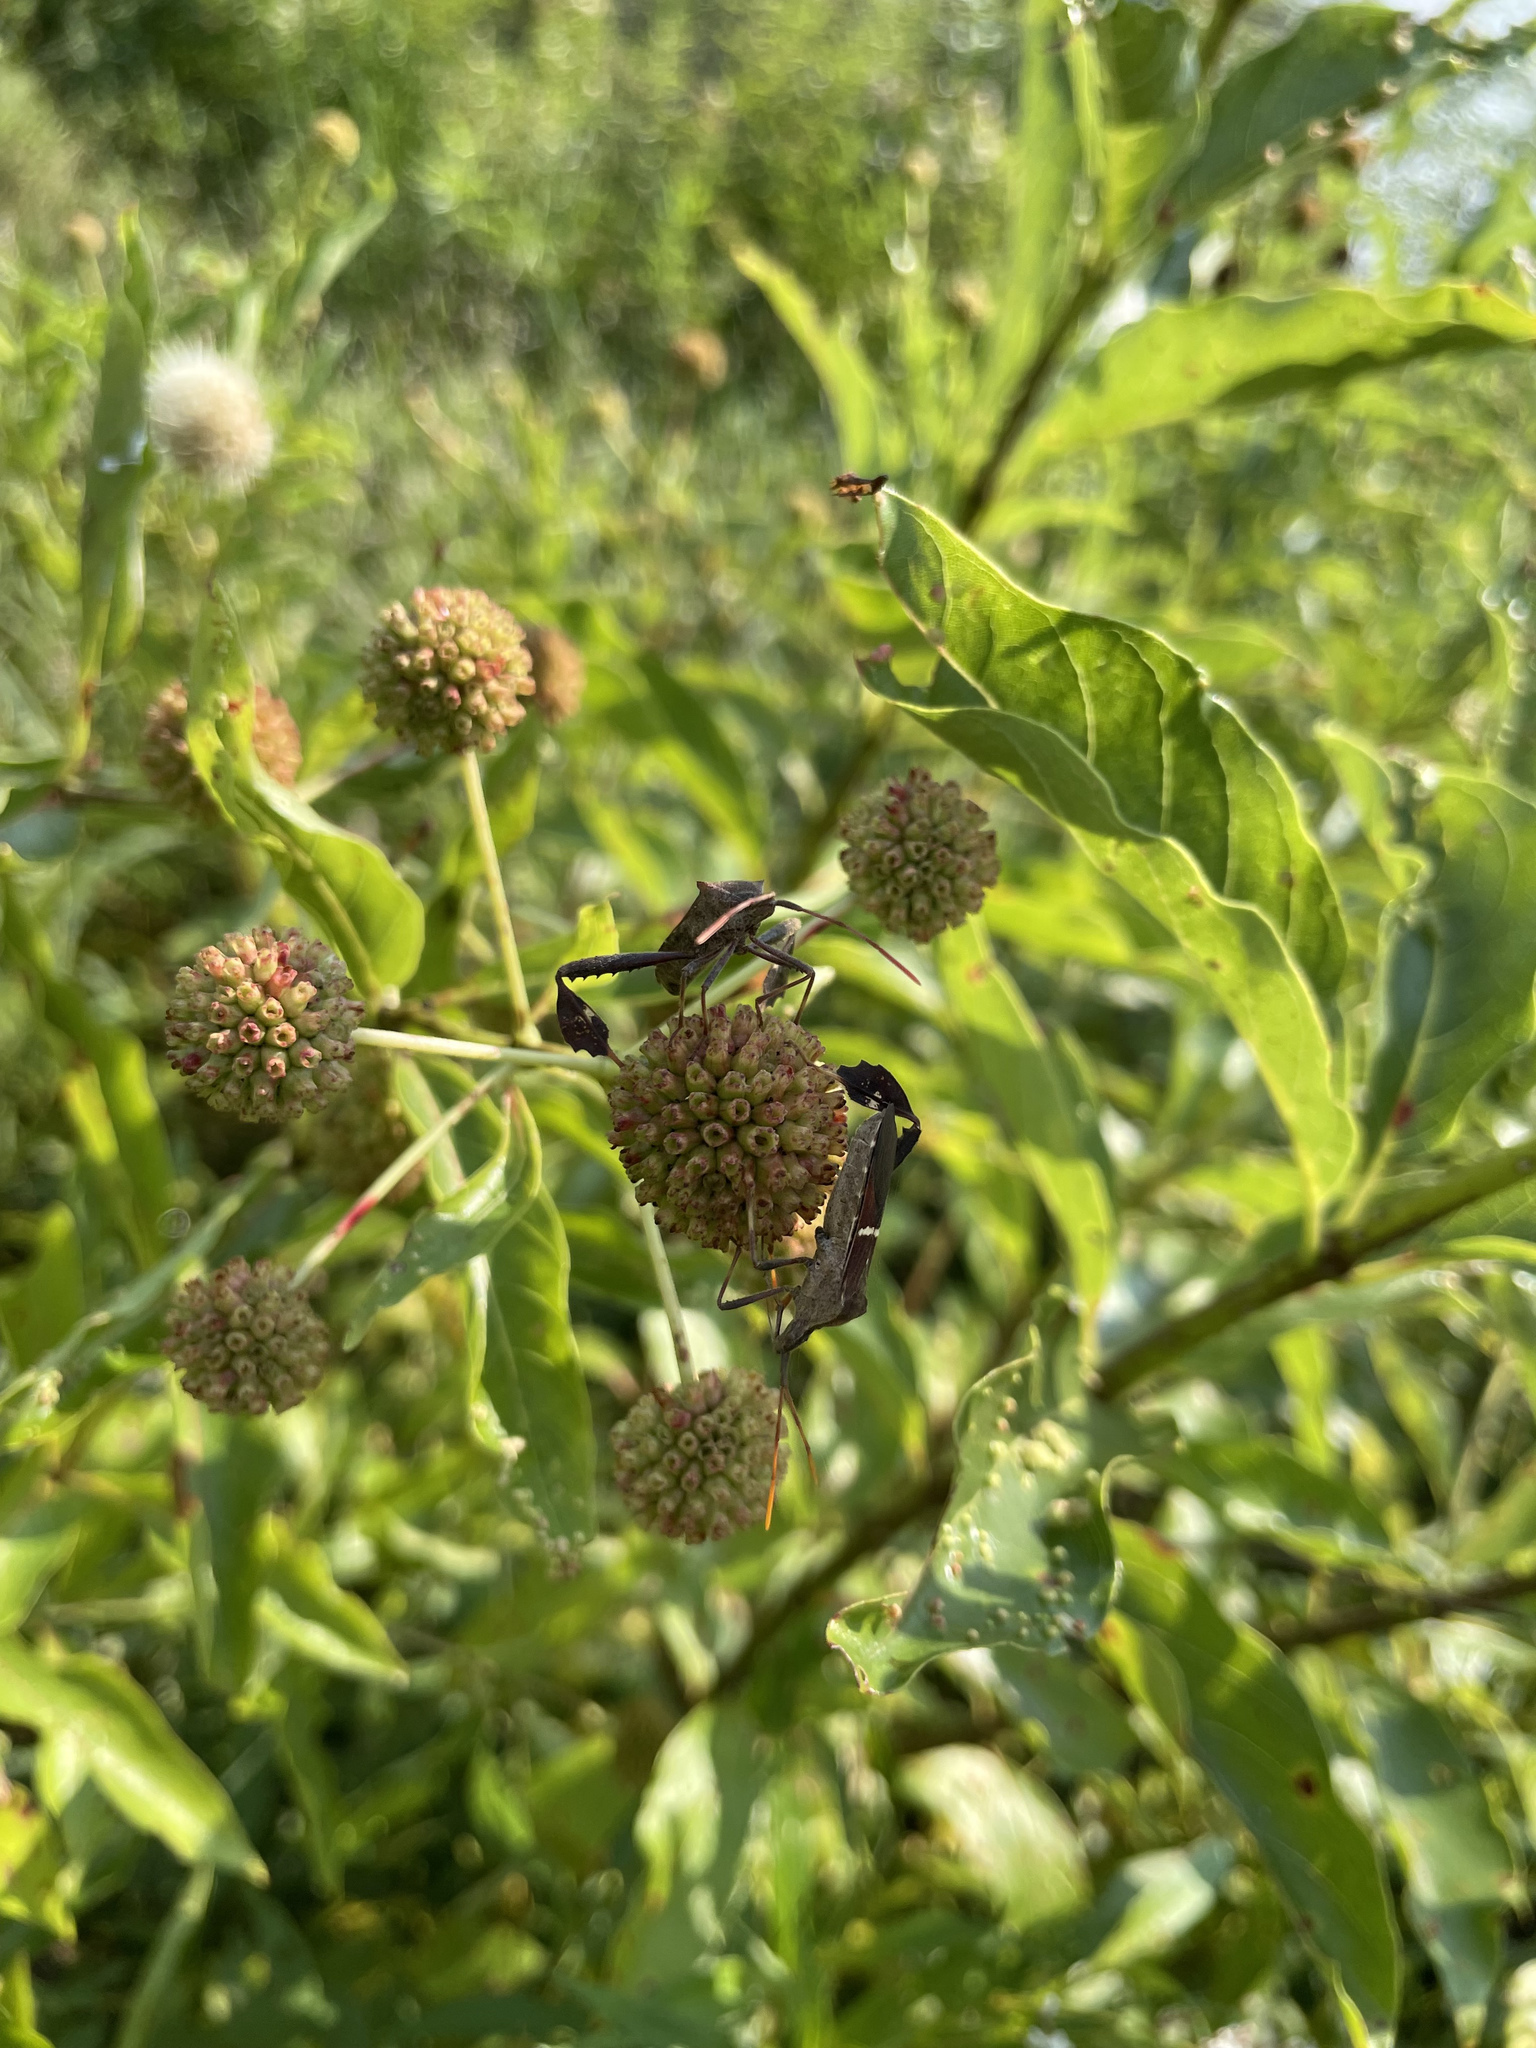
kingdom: Animalia
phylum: Arthropoda
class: Insecta
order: Hemiptera
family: Coreidae
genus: Leptoglossus
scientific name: Leptoglossus phyllopus
